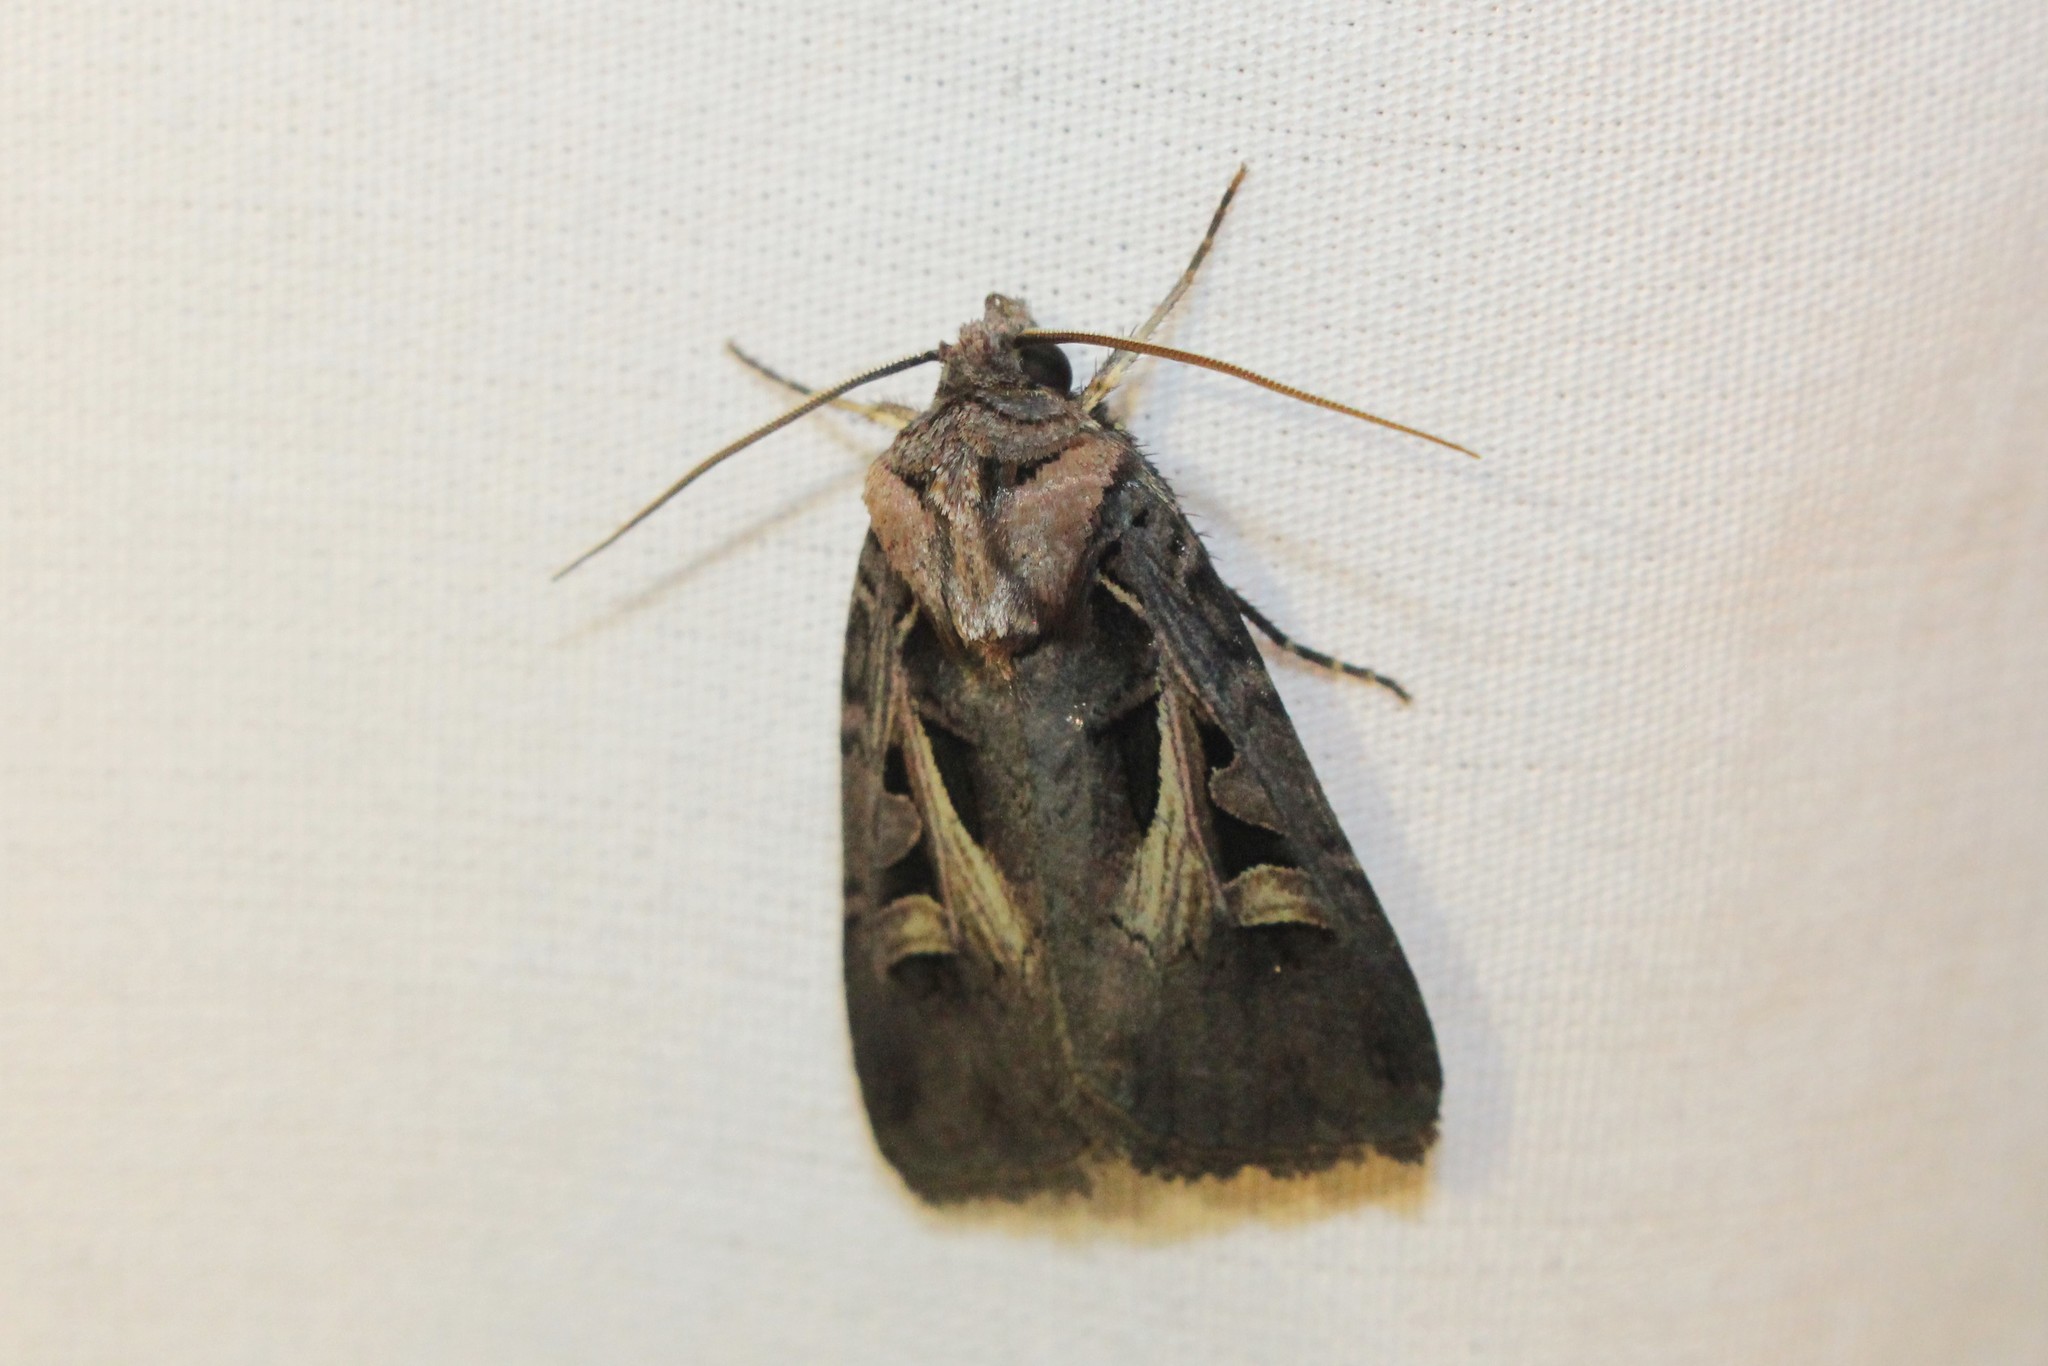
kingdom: Animalia
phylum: Arthropoda
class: Insecta
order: Lepidoptera
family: Noctuidae
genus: Feltia
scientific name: Feltia herilis
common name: Master's dart
